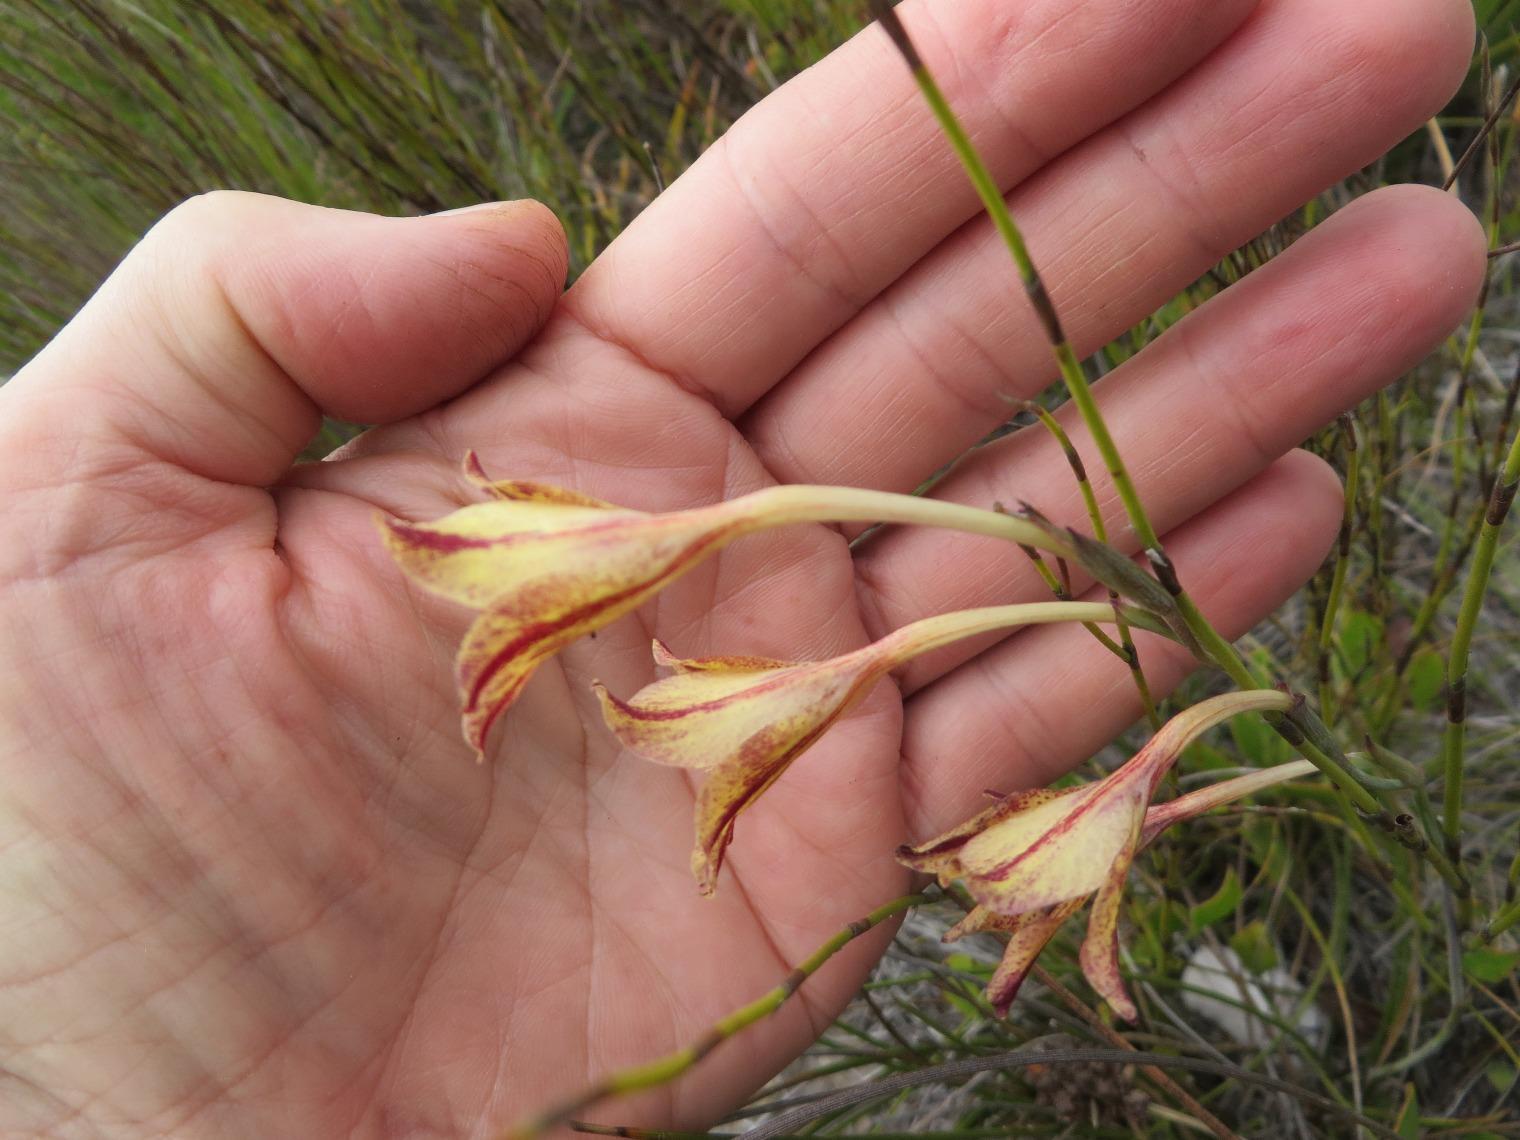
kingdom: Plantae
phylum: Tracheophyta
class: Liliopsida
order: Asparagales
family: Iridaceae
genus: Gladiolus
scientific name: Gladiolus emiliae
